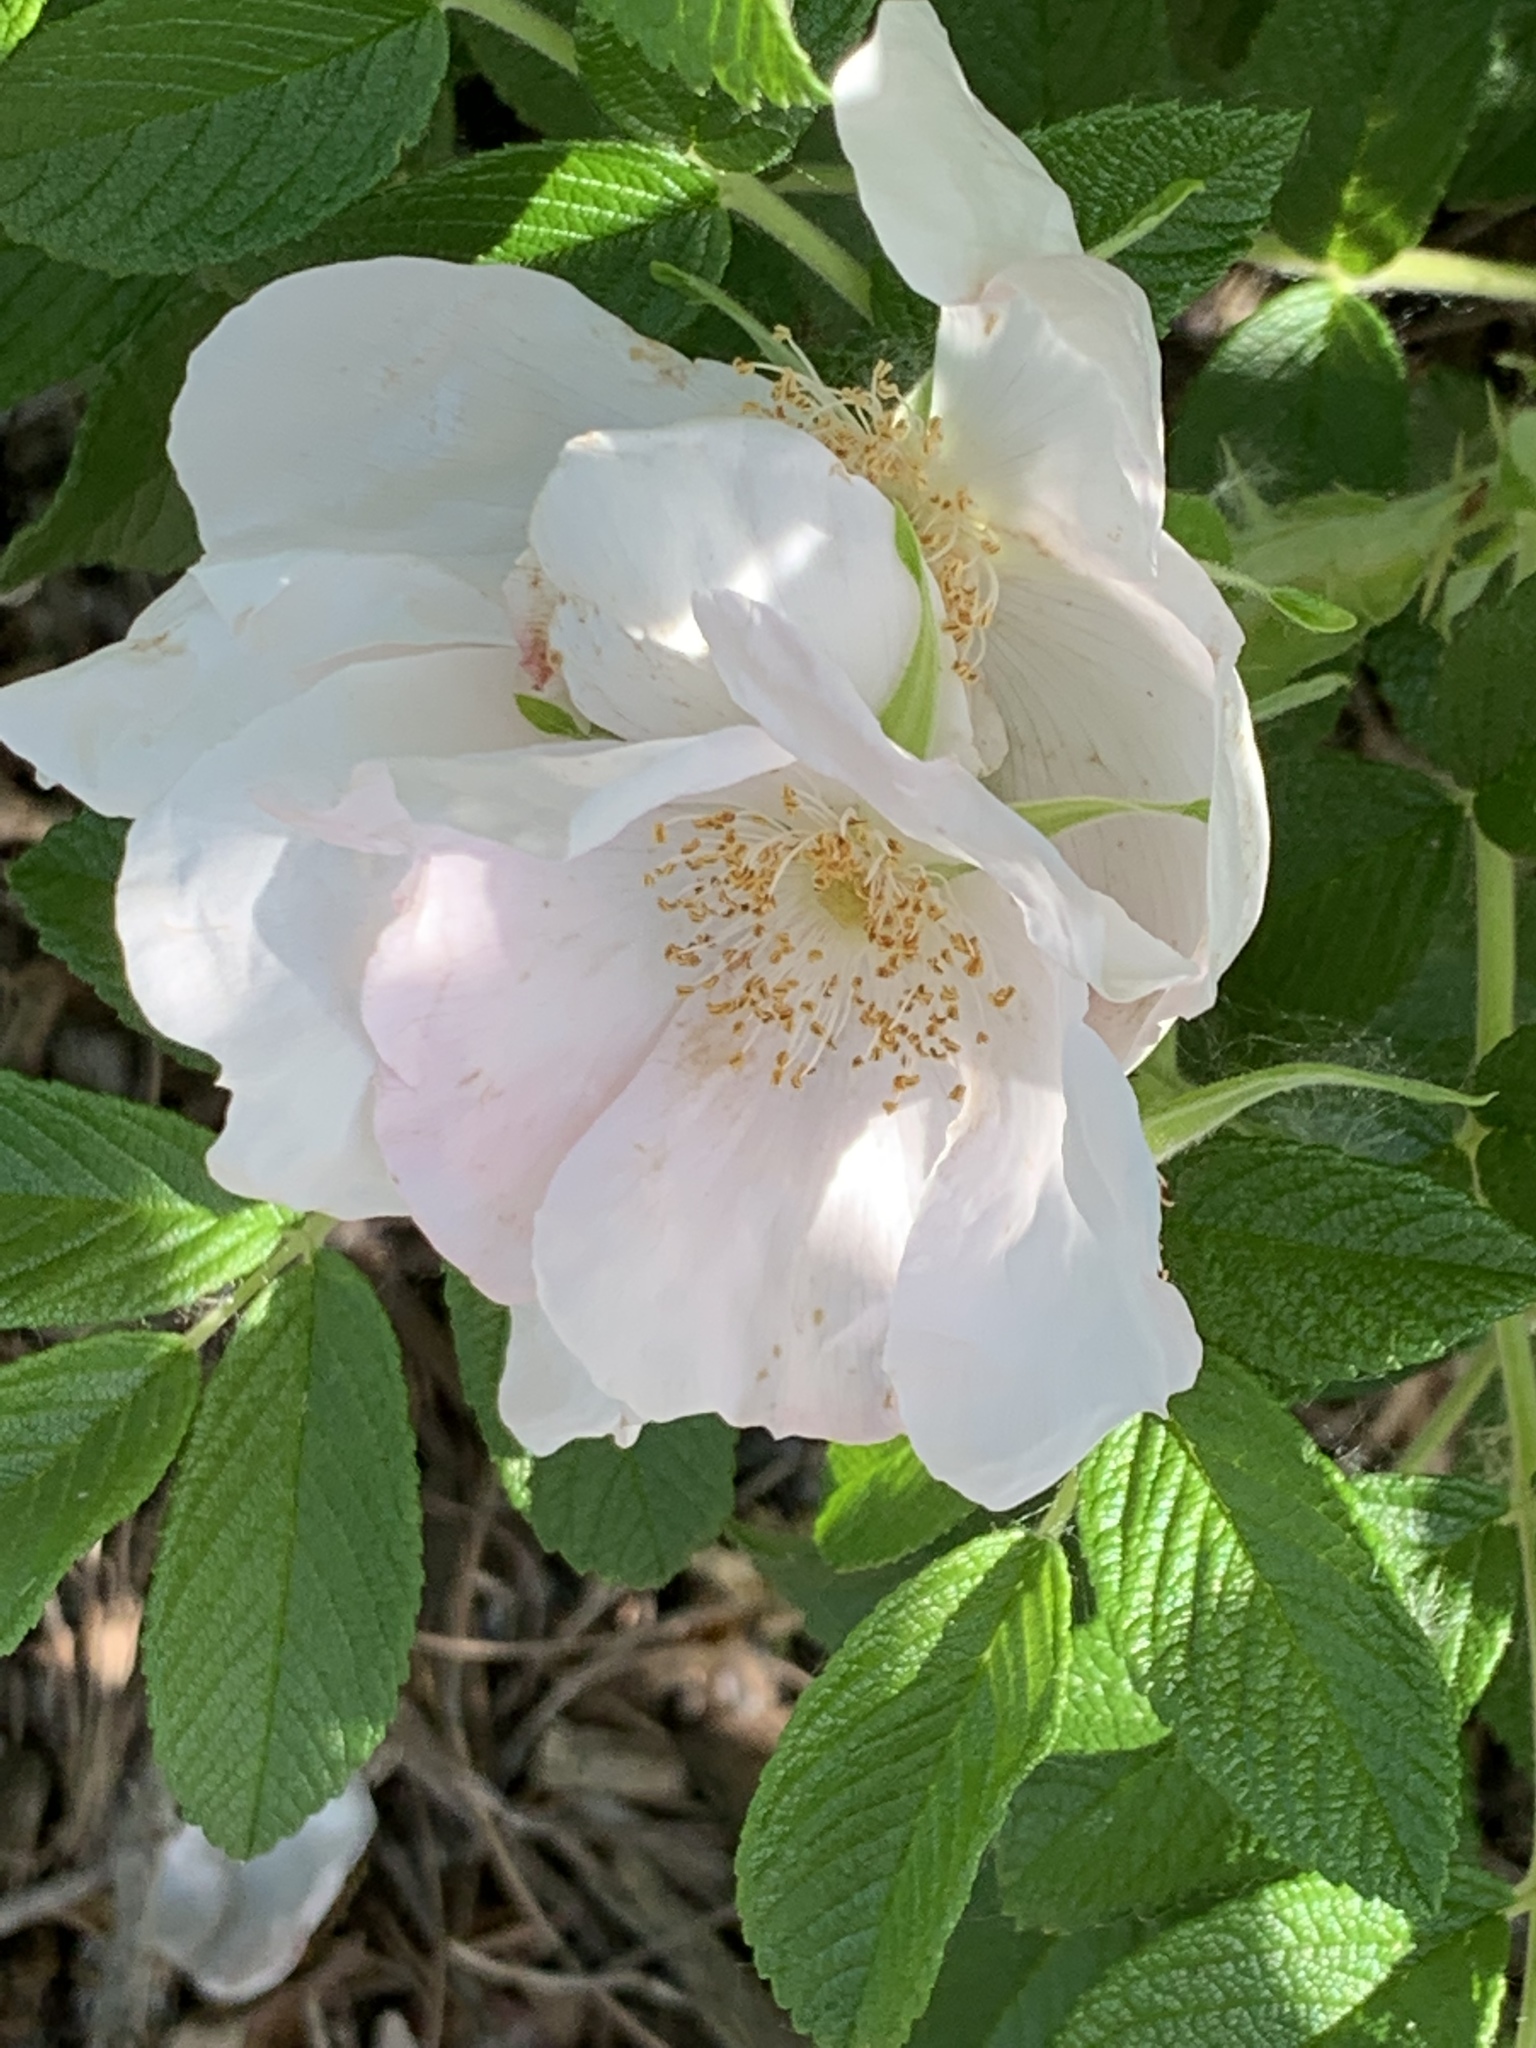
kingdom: Plantae
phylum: Tracheophyta
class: Magnoliopsida
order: Rosales
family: Rosaceae
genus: Rosa
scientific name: Rosa rugosa
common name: Japanese rose
